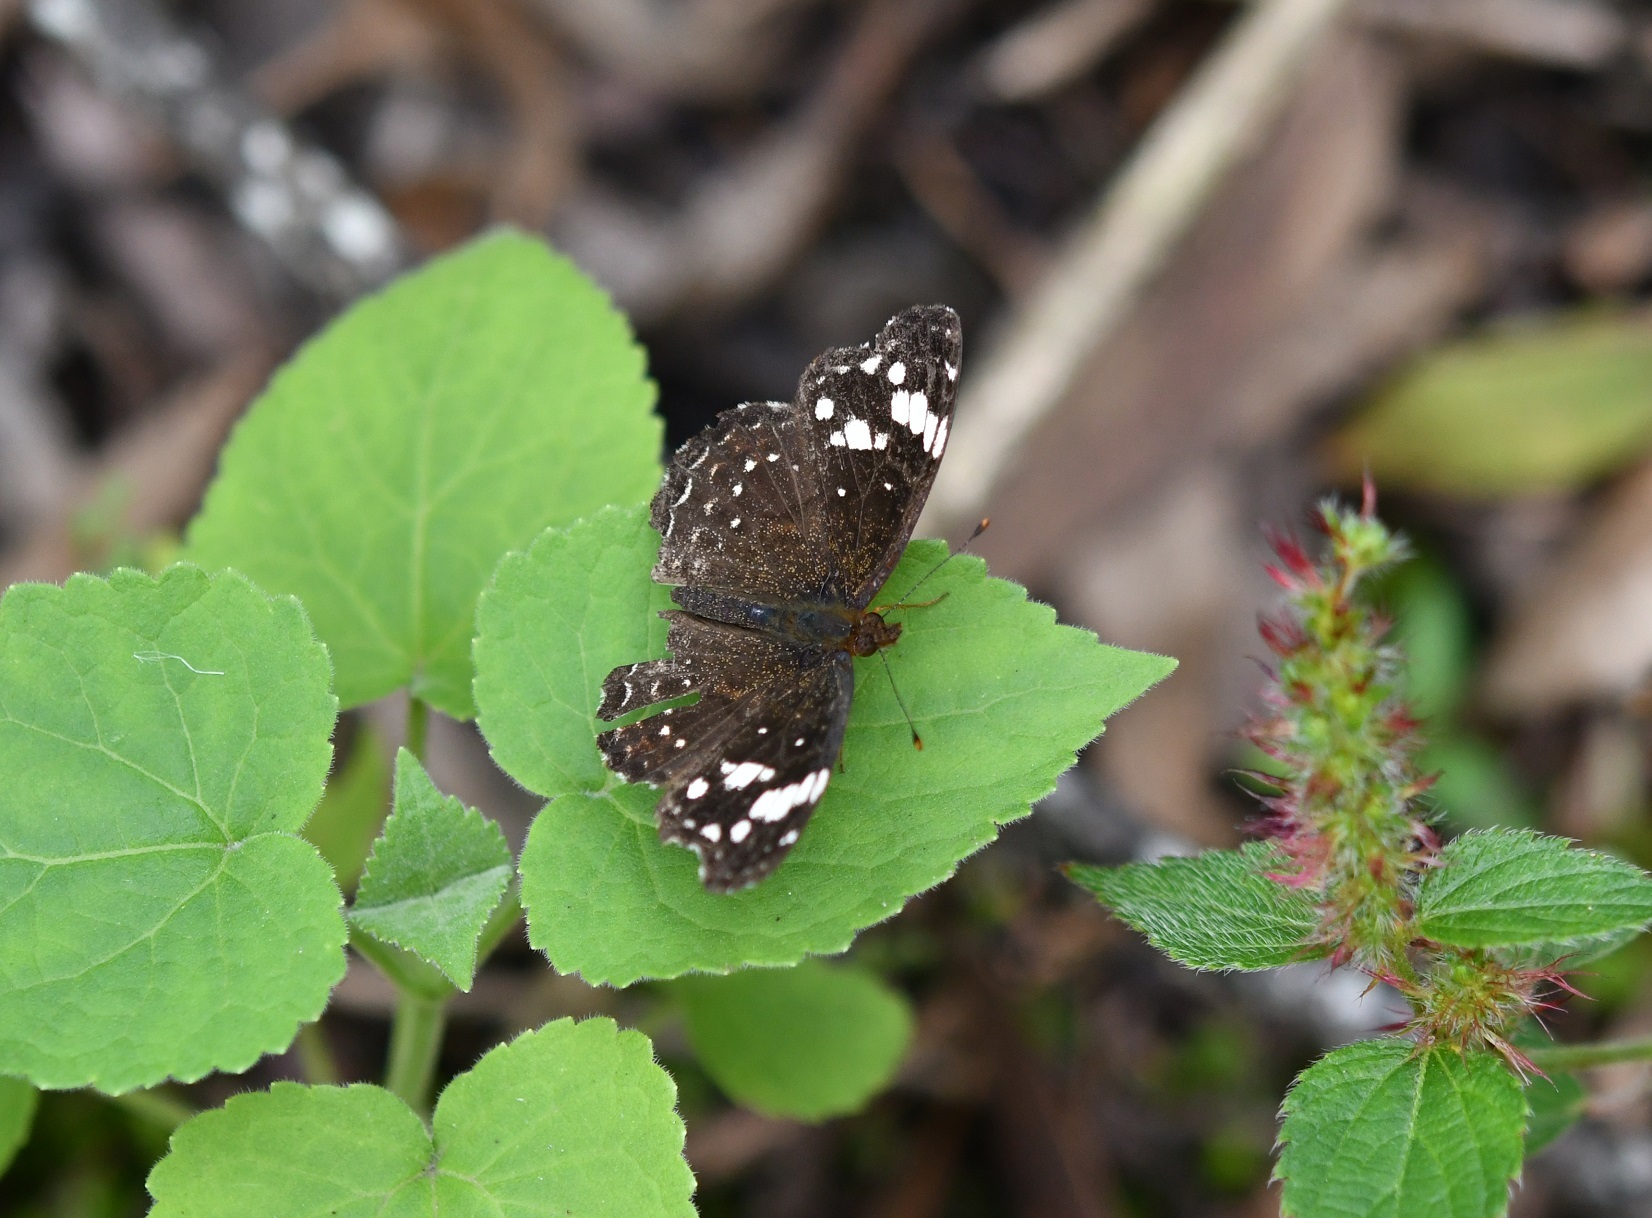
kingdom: Animalia
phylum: Arthropoda
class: Insecta
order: Lepidoptera
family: Nymphalidae
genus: Anthanassa
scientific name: Anthanassa sitalces
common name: Montane crescent
